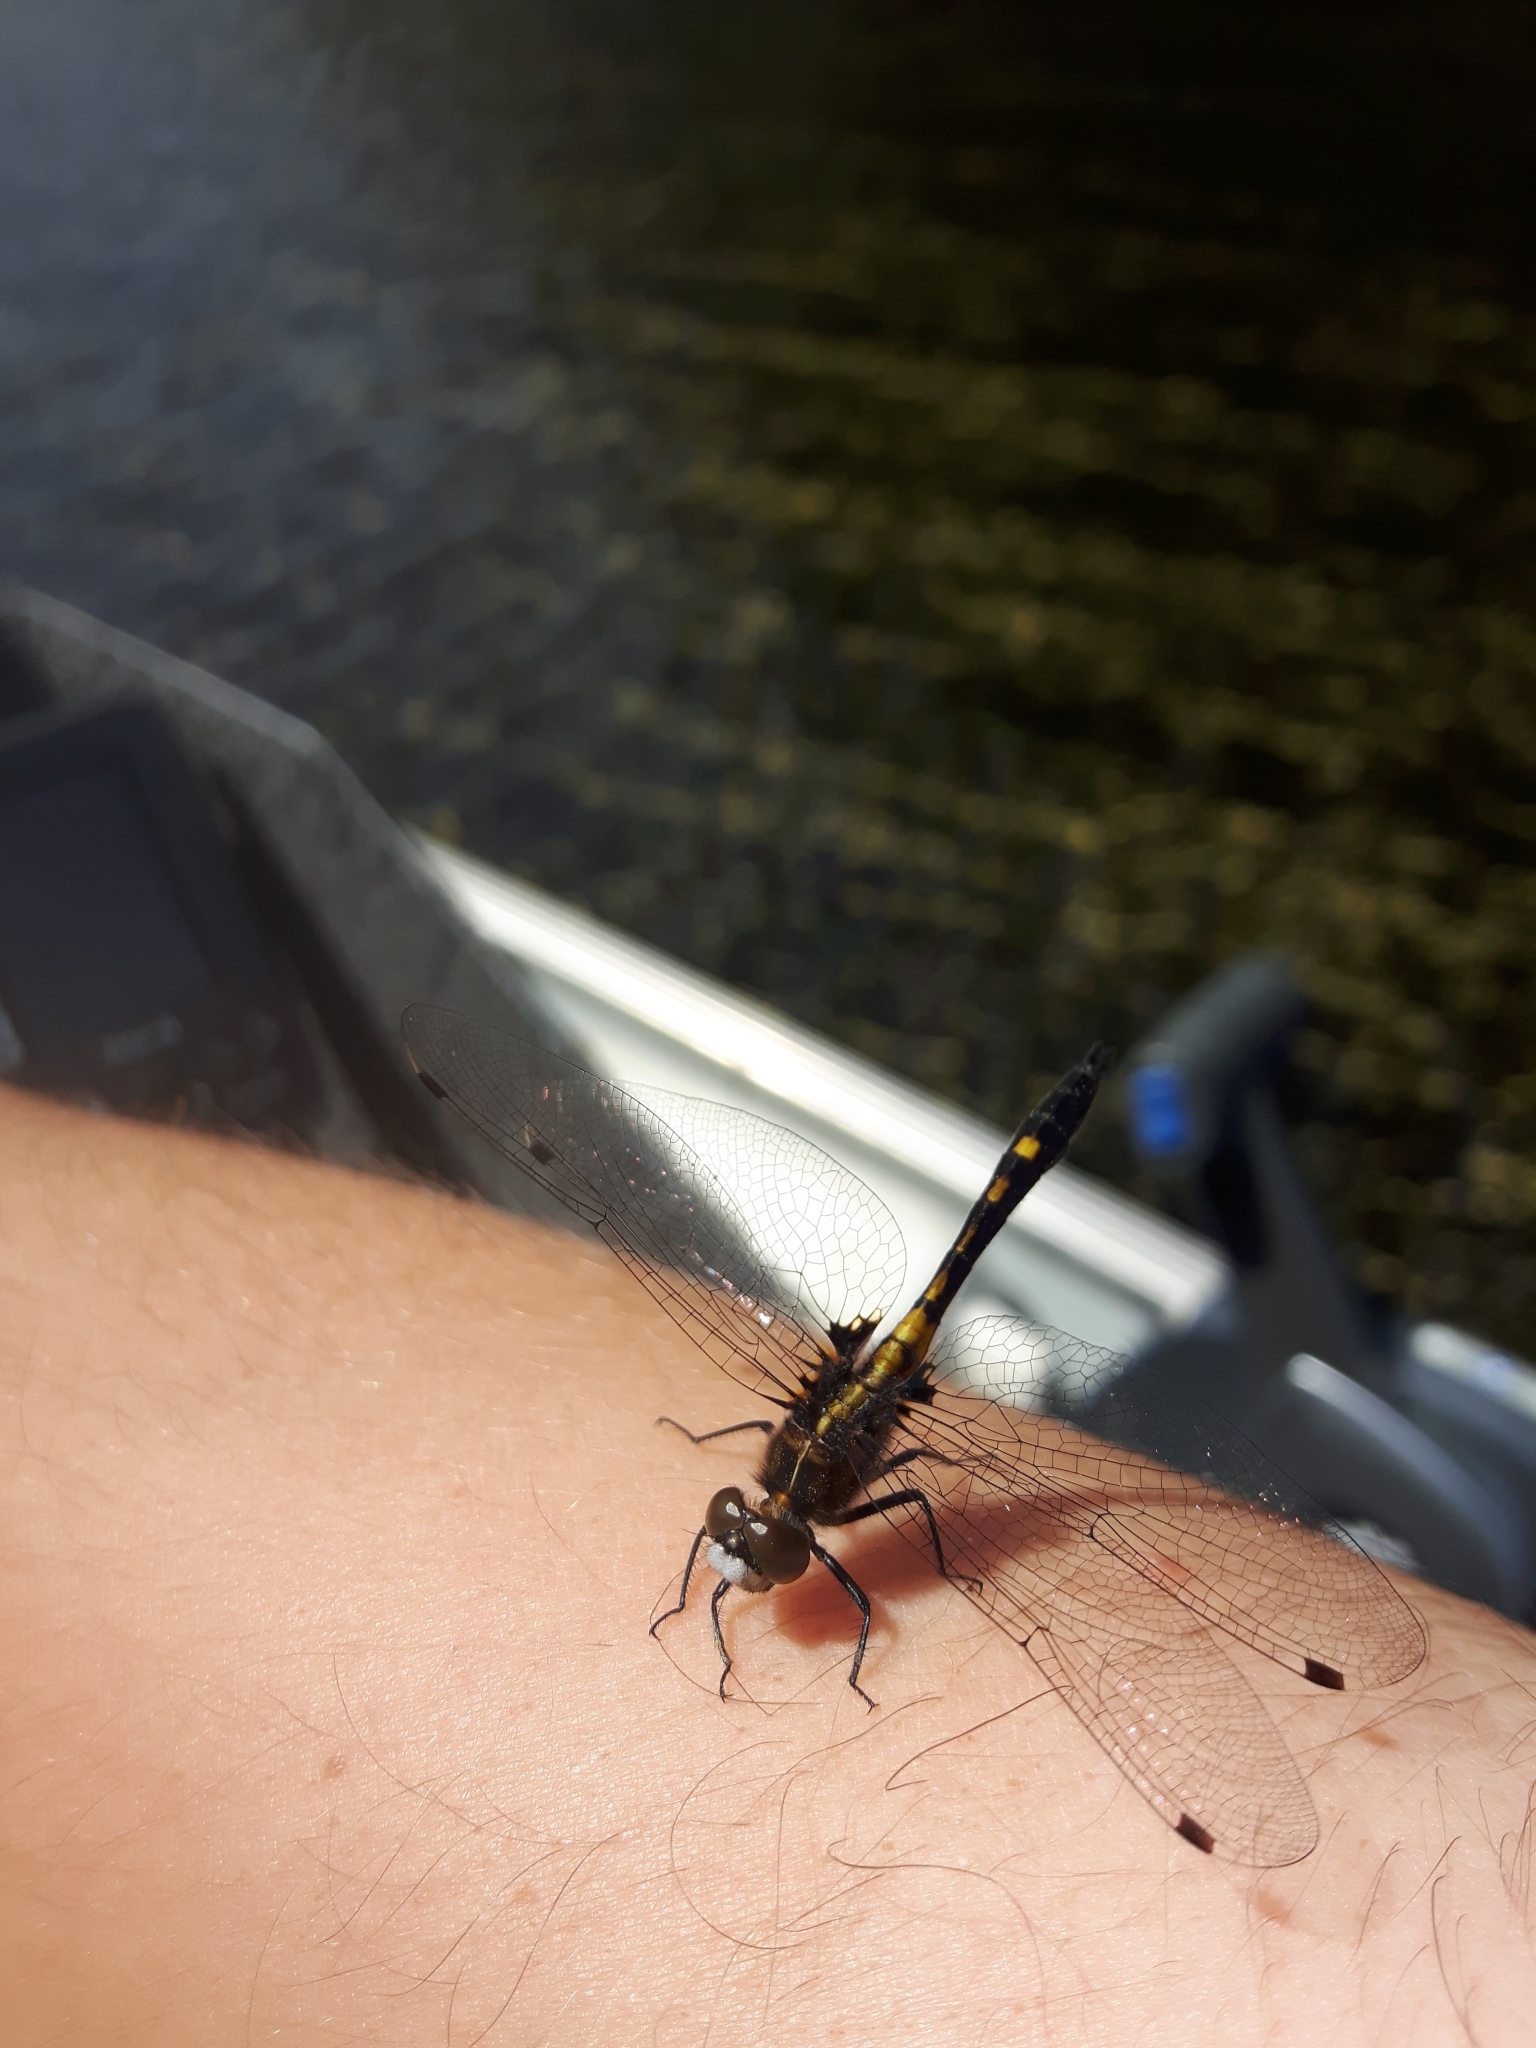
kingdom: Animalia
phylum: Arthropoda
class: Insecta
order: Odonata
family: Libellulidae
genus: Leucorrhinia
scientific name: Leucorrhinia intacta
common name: Dot-tailed whiteface
